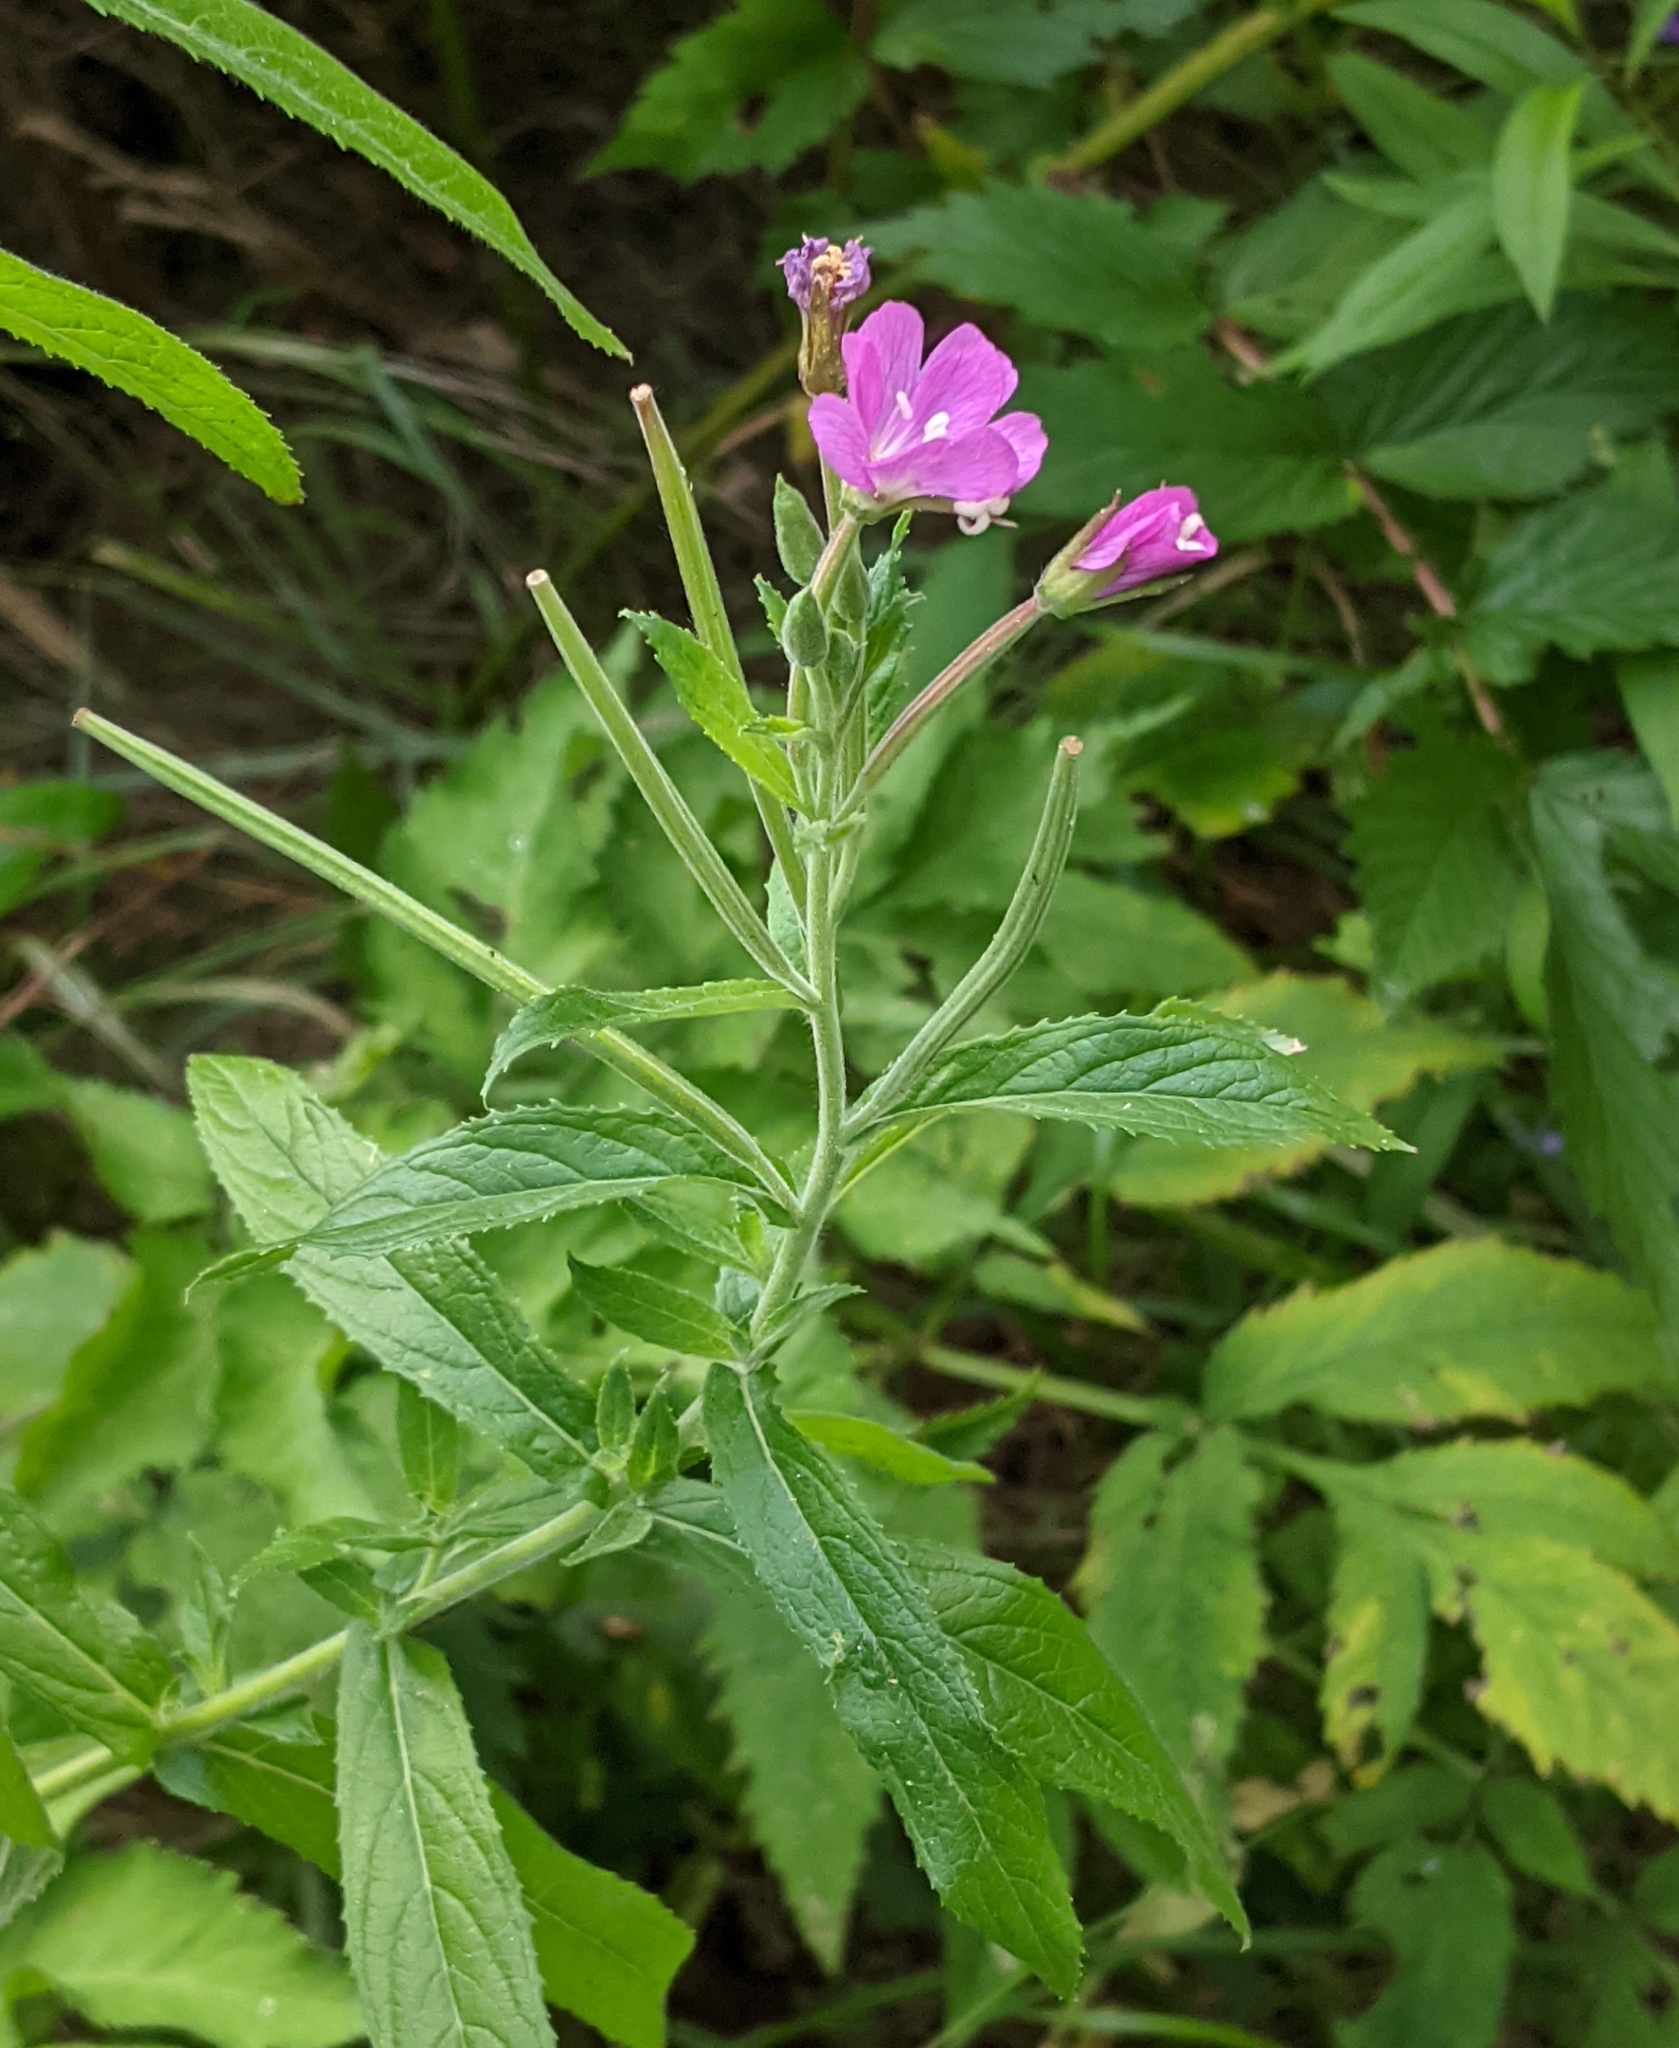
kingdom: Plantae
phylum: Tracheophyta
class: Magnoliopsida
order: Myrtales
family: Onagraceae
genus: Epilobium
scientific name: Epilobium hirsutum
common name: Great willowherb
